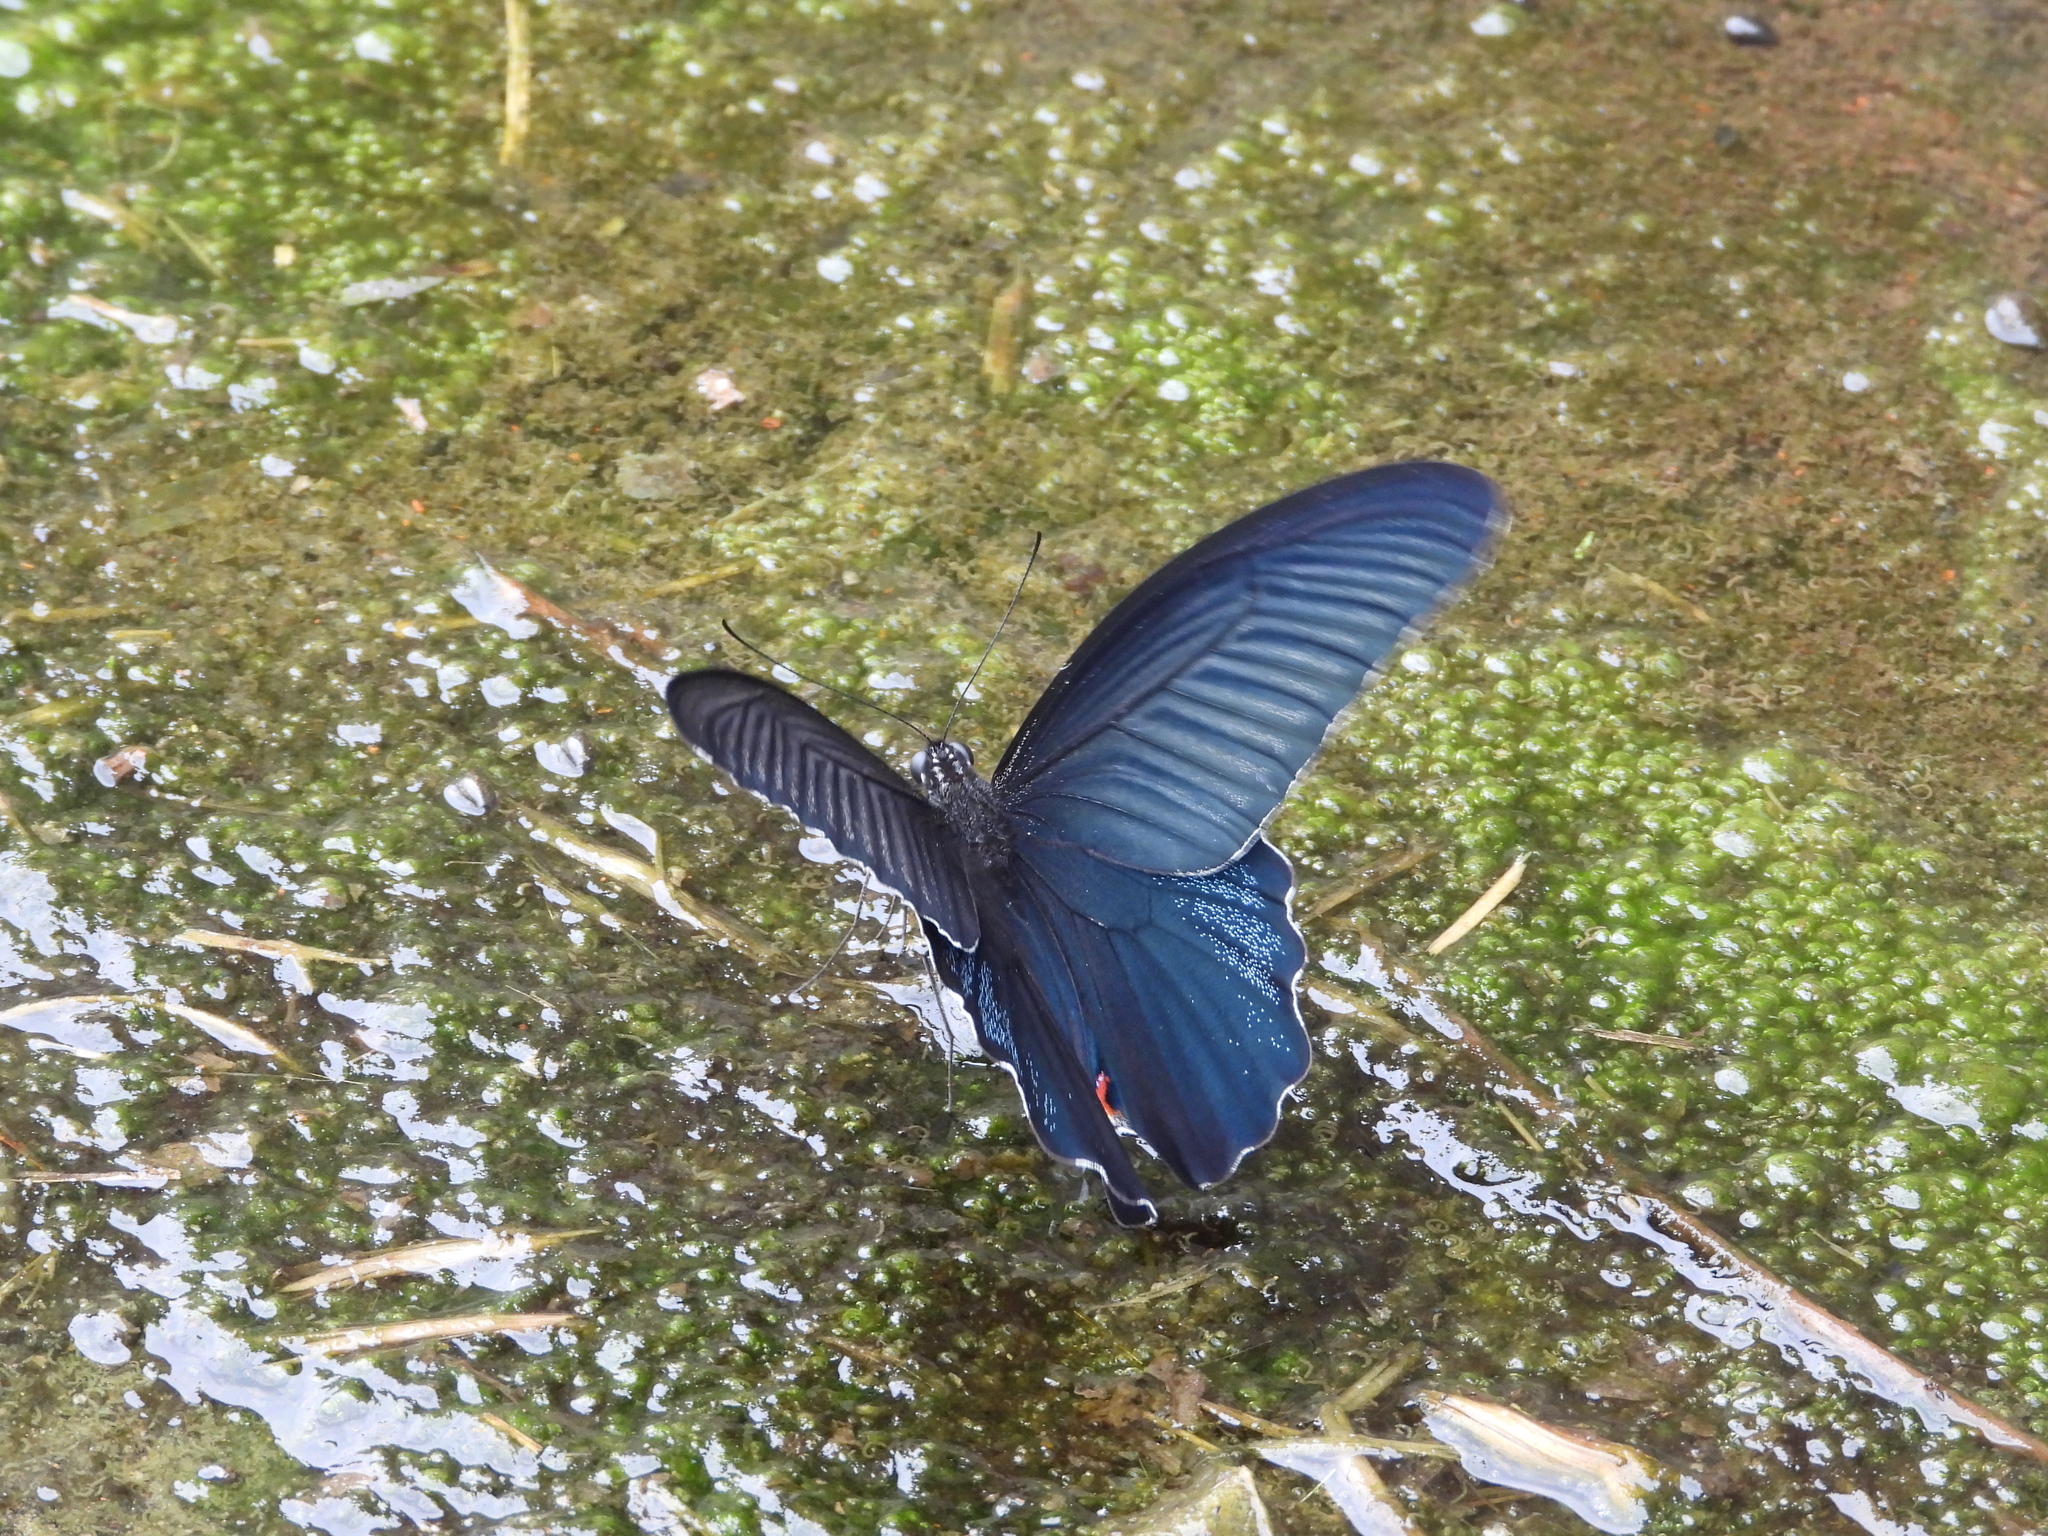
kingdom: Animalia
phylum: Arthropoda
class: Insecta
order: Lepidoptera
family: Papilionidae
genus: Papilio
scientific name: Papilio protenor
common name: Spangle
